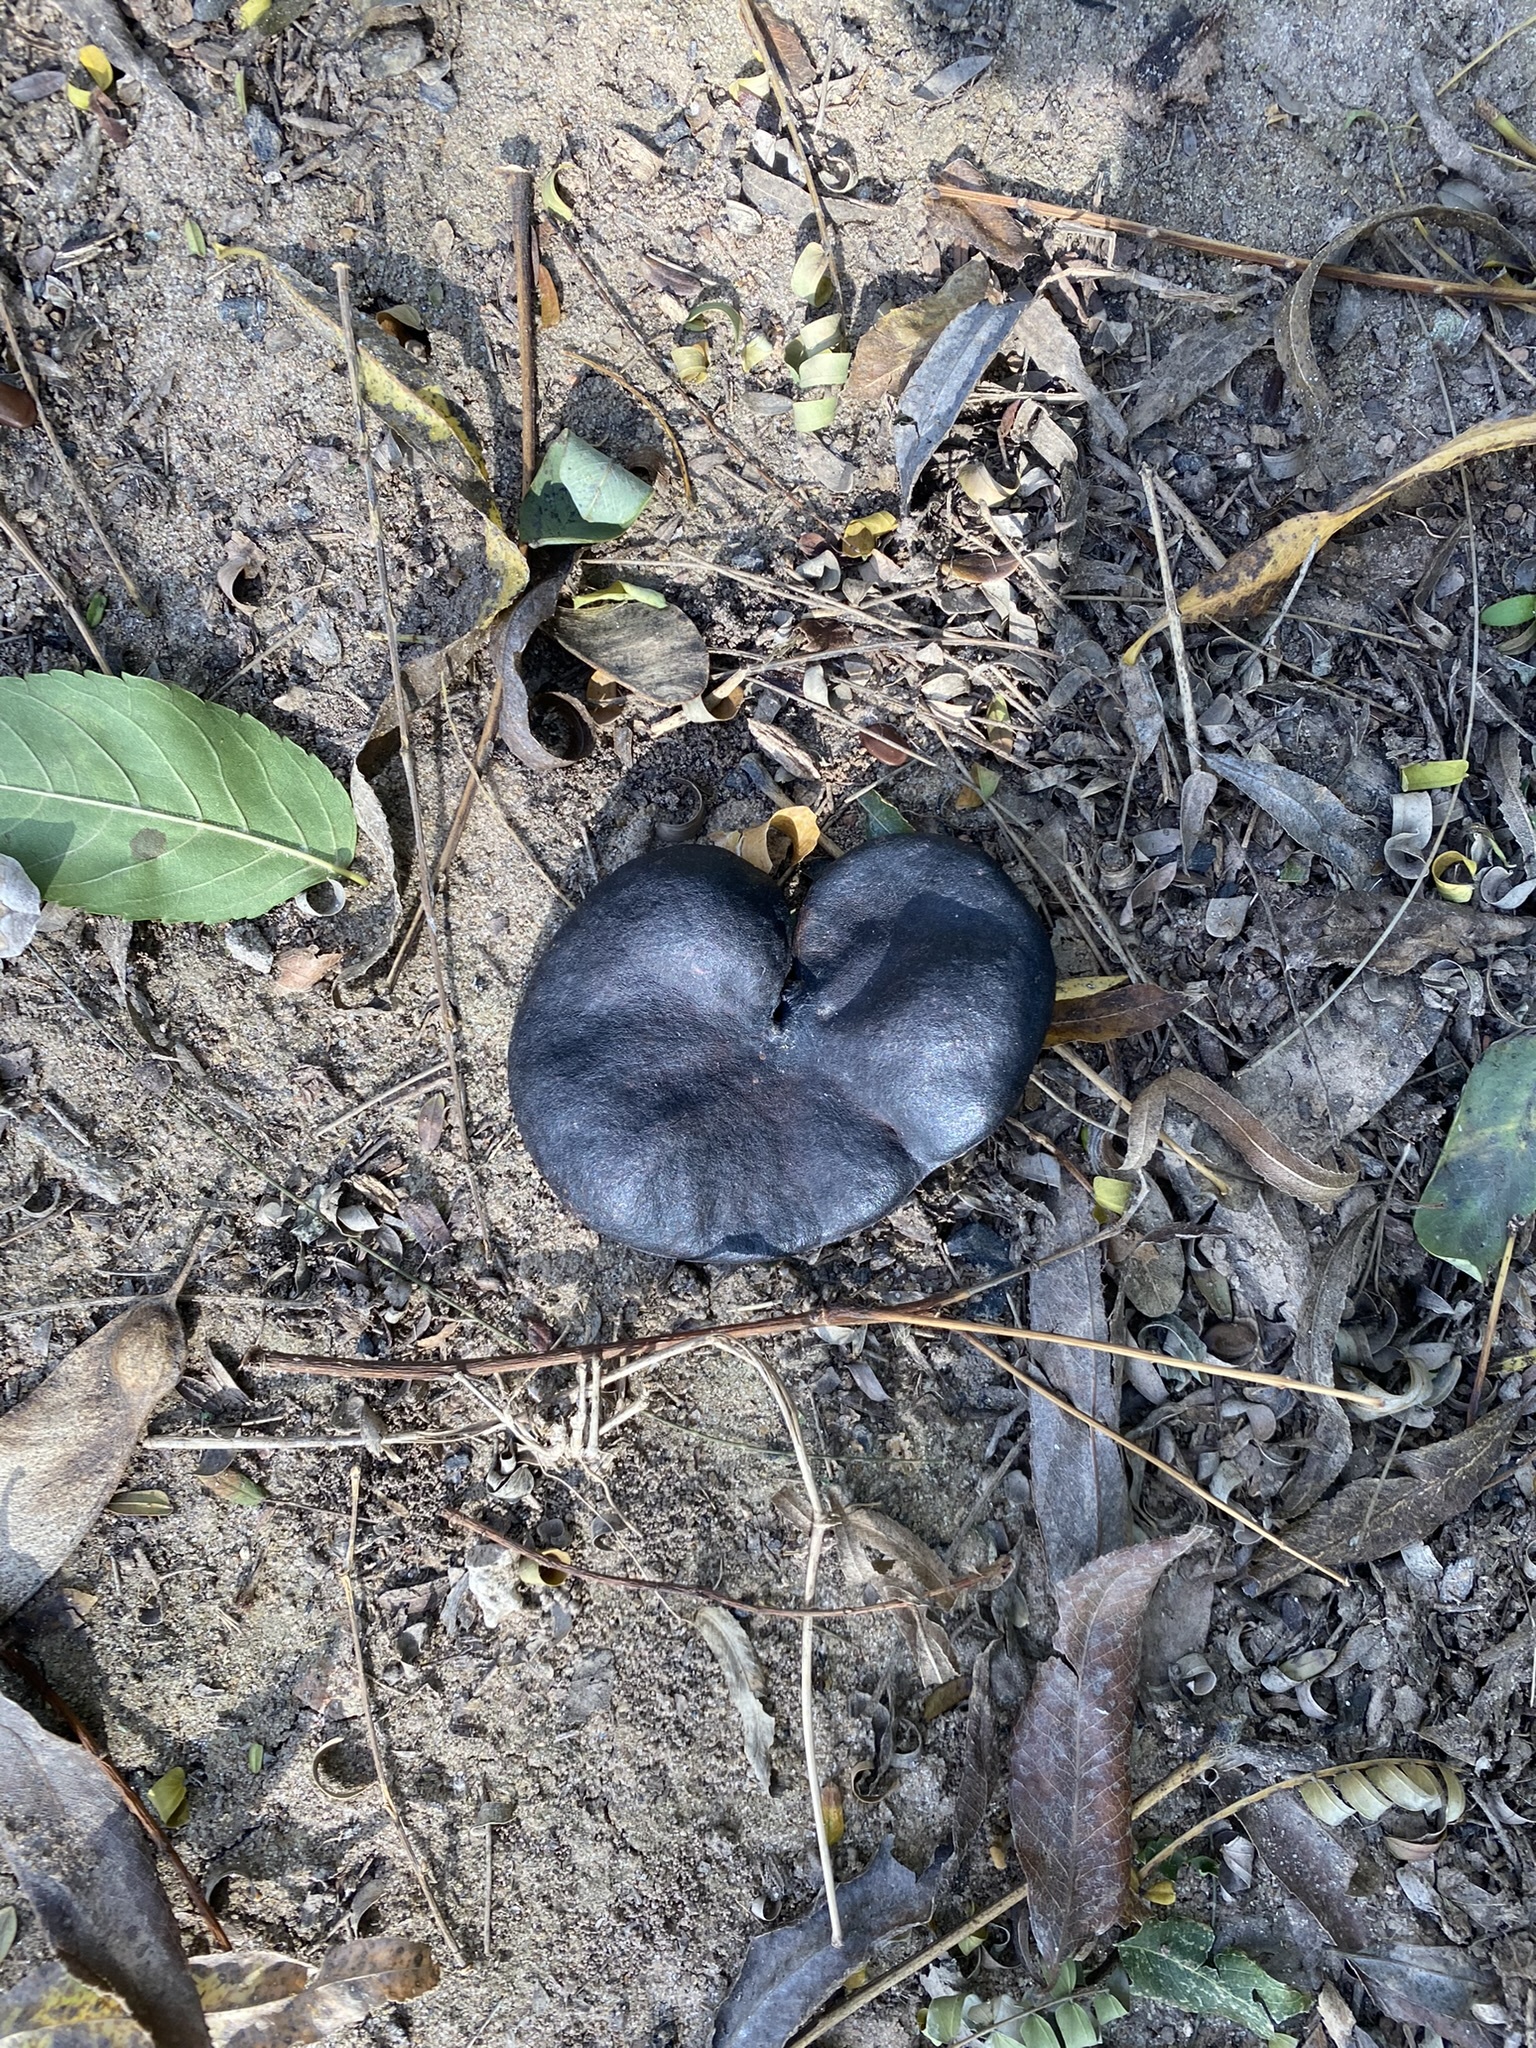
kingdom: Plantae
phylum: Tracheophyta
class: Magnoliopsida
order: Fabales
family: Fabaceae
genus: Enterolobium
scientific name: Enterolobium contortisiliquum
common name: Pacara earpod tree
